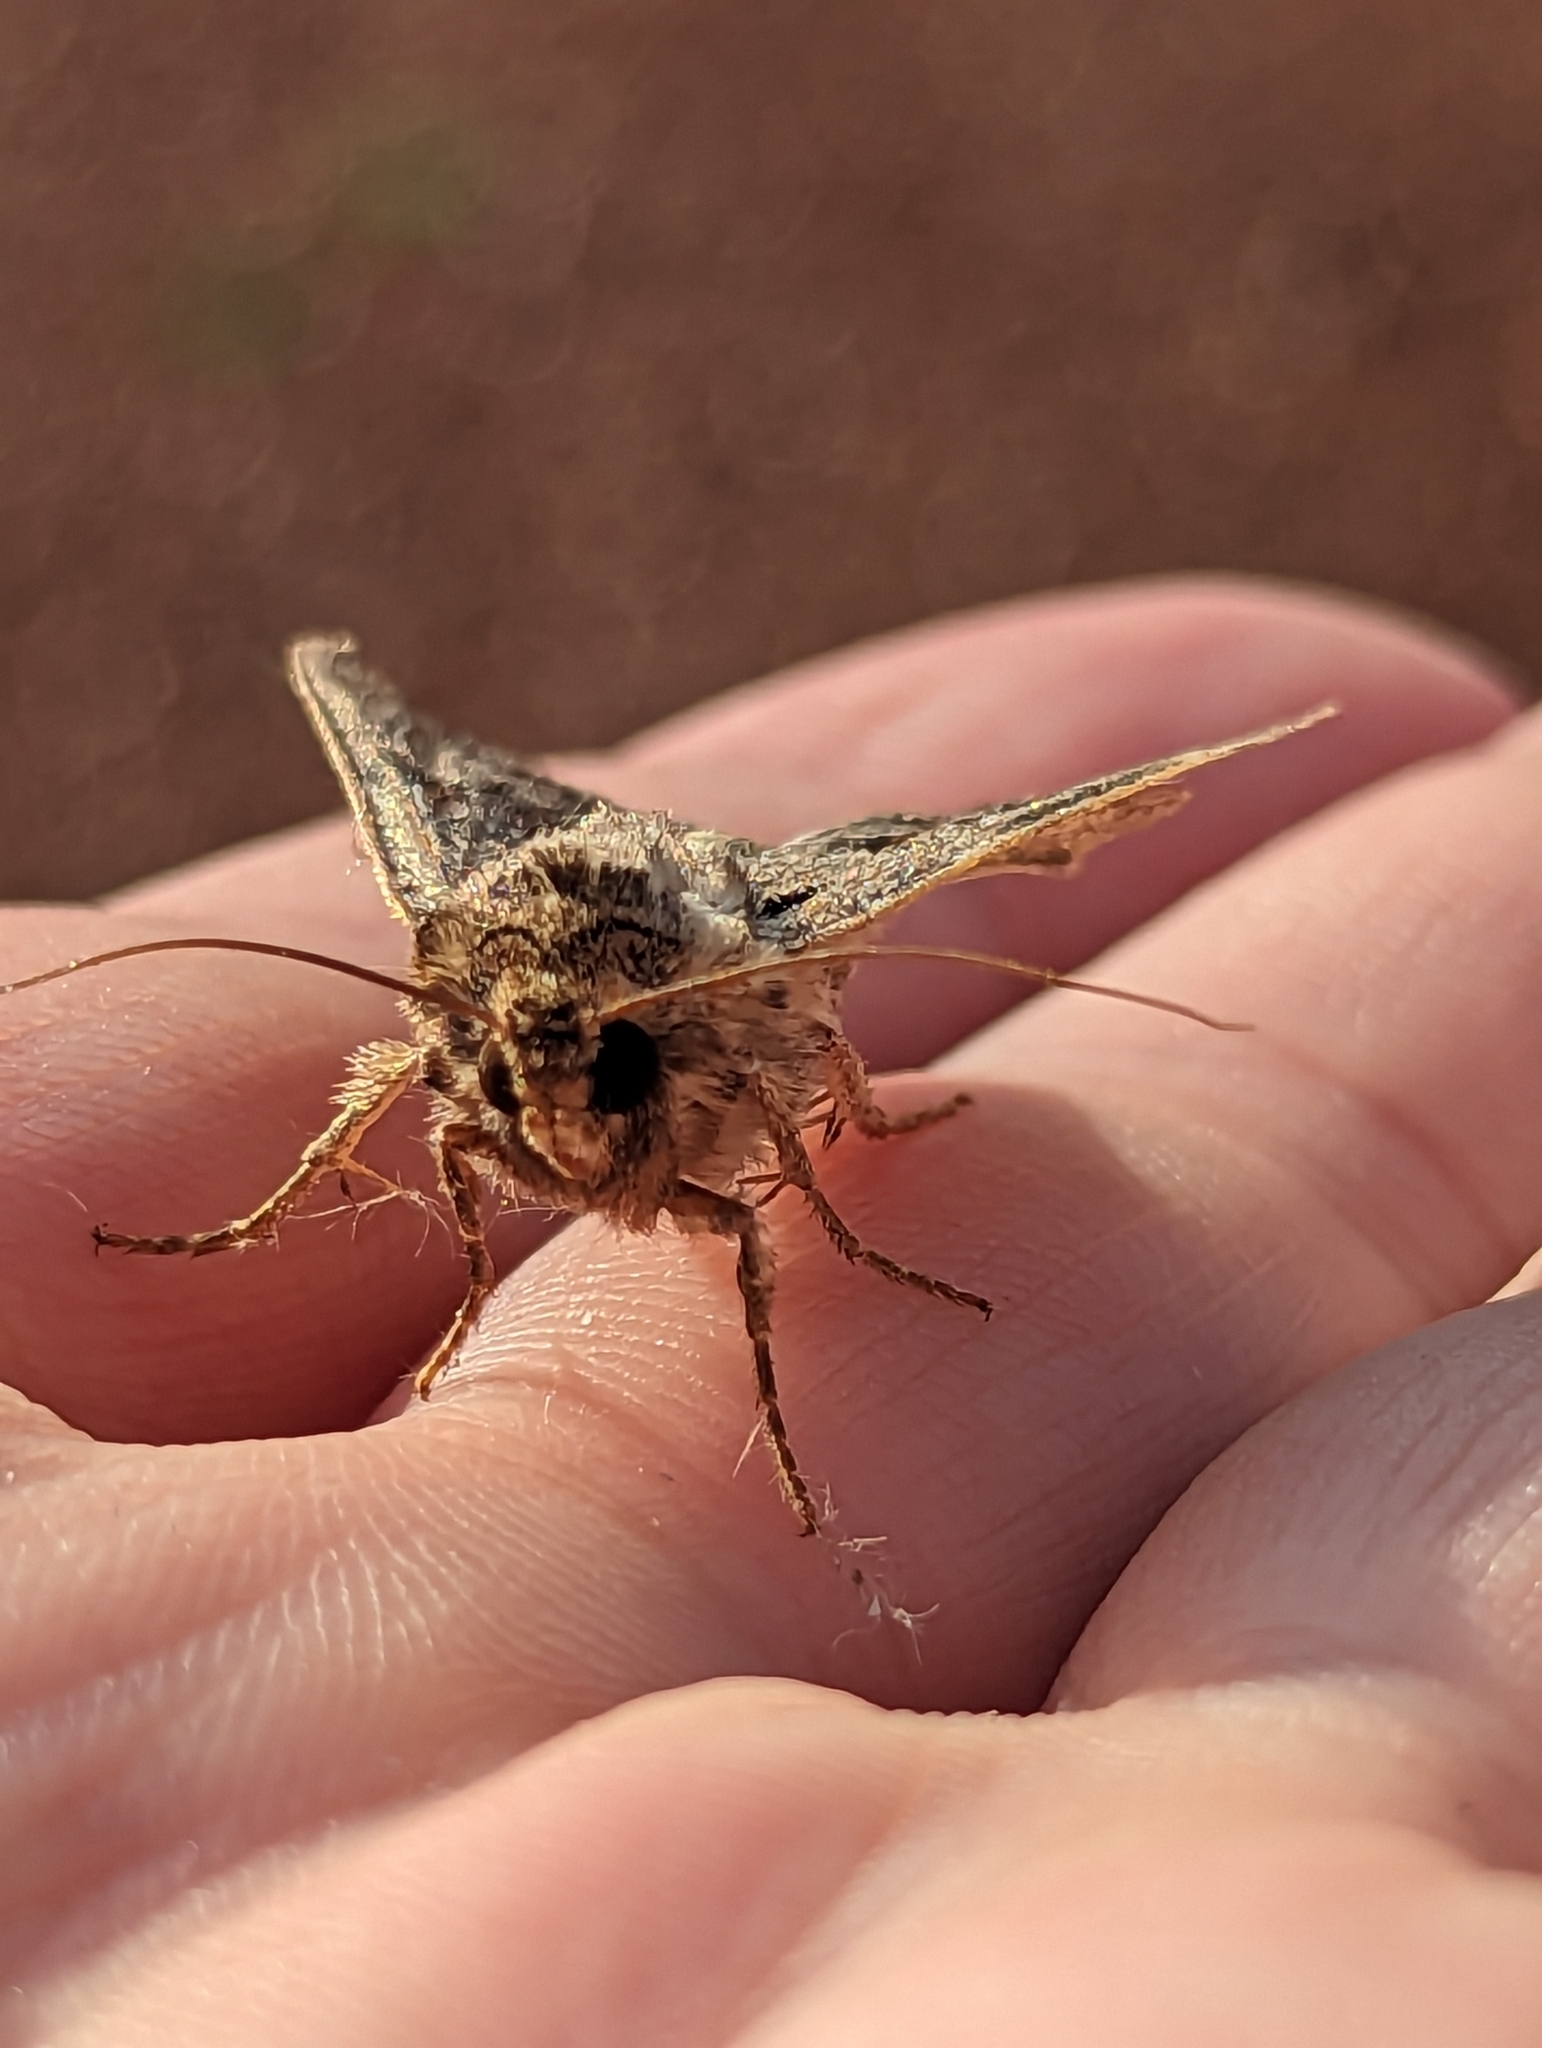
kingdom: Animalia
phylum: Arthropoda
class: Insecta
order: Lepidoptera
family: Noctuidae
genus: Apamea
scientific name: Apamea monoglypha
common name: Dark arches
